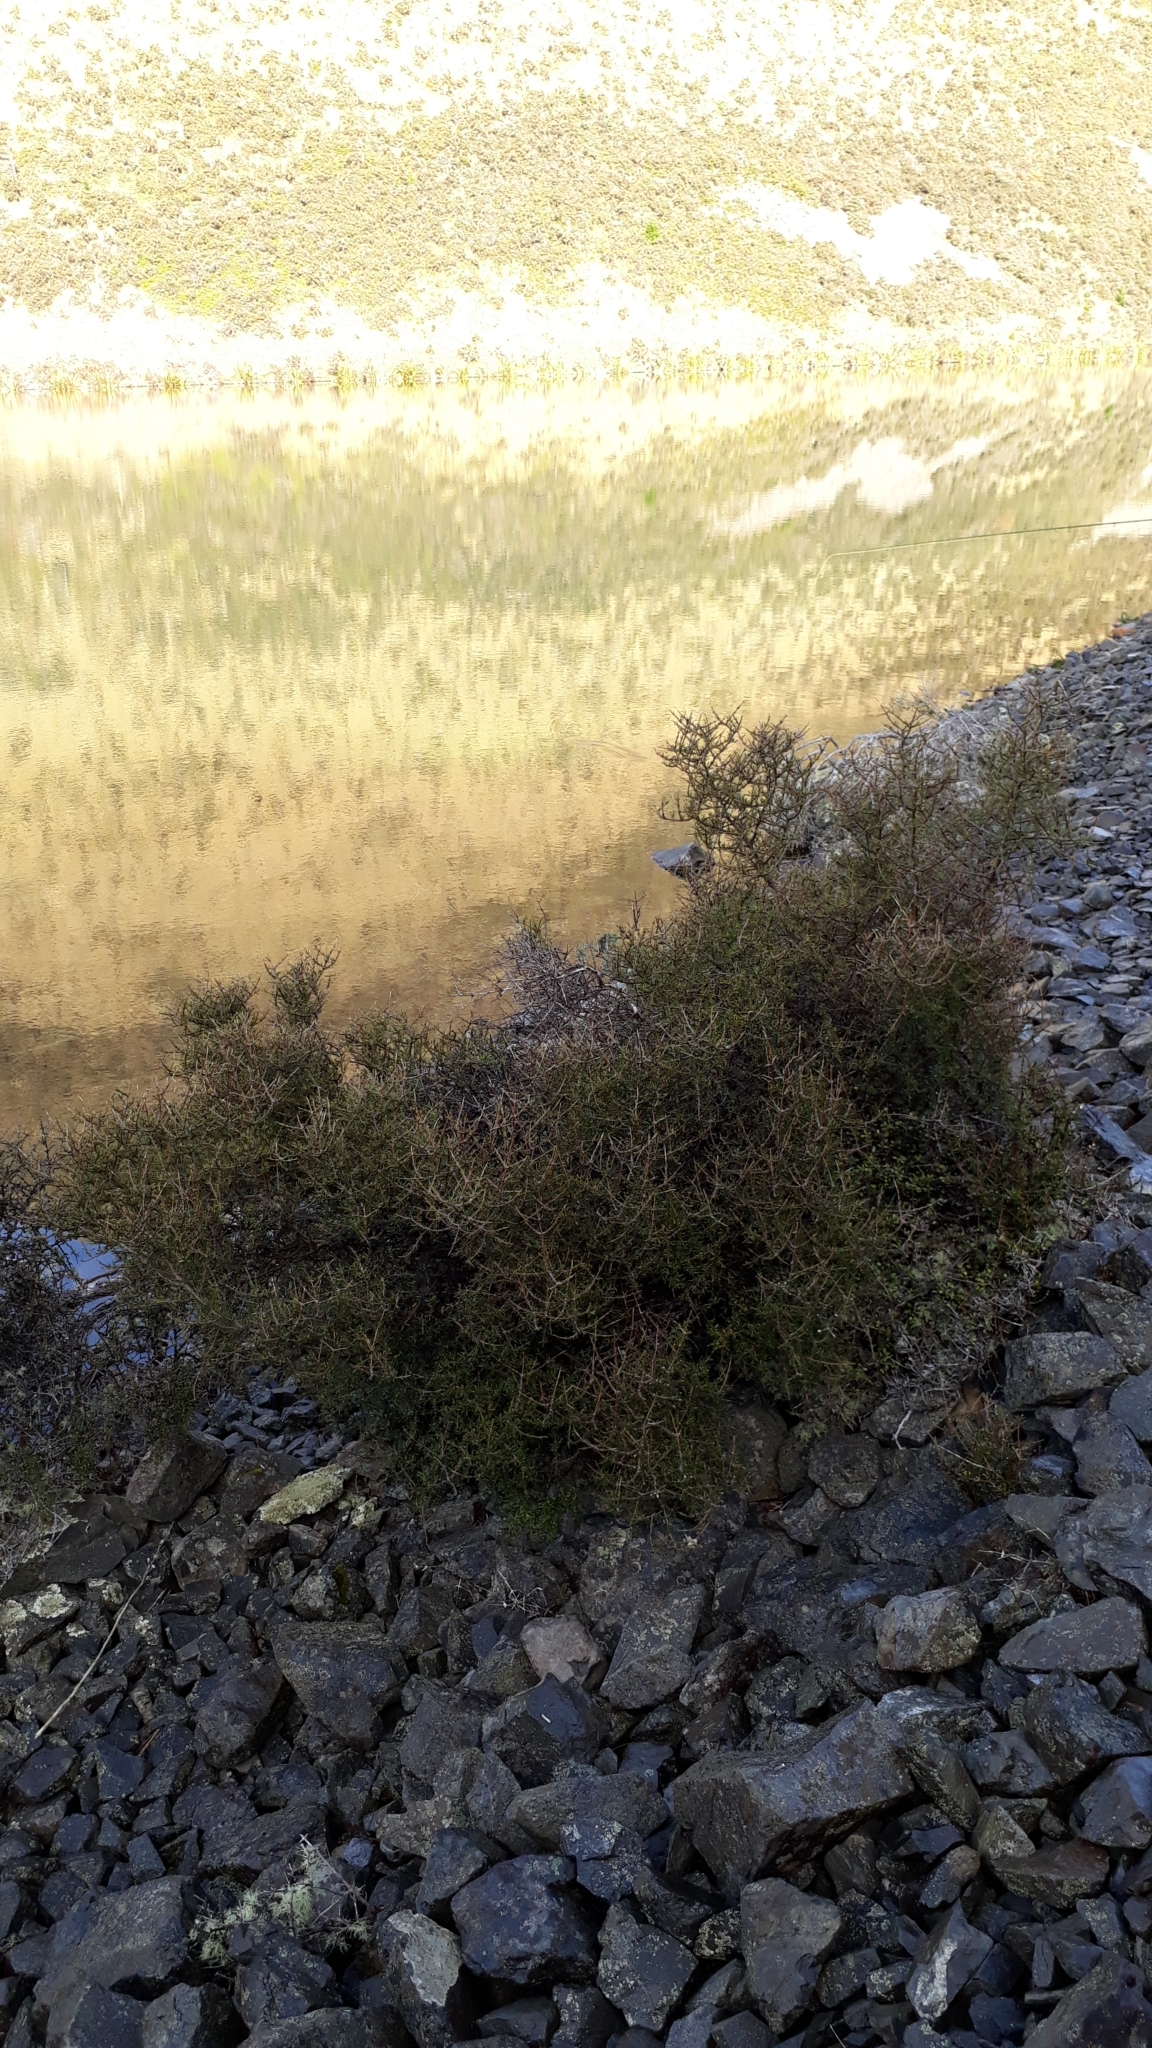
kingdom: Plantae
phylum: Tracheophyta
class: Magnoliopsida
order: Gentianales
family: Rubiaceae
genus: Coprosma
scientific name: Coprosma rugosa
